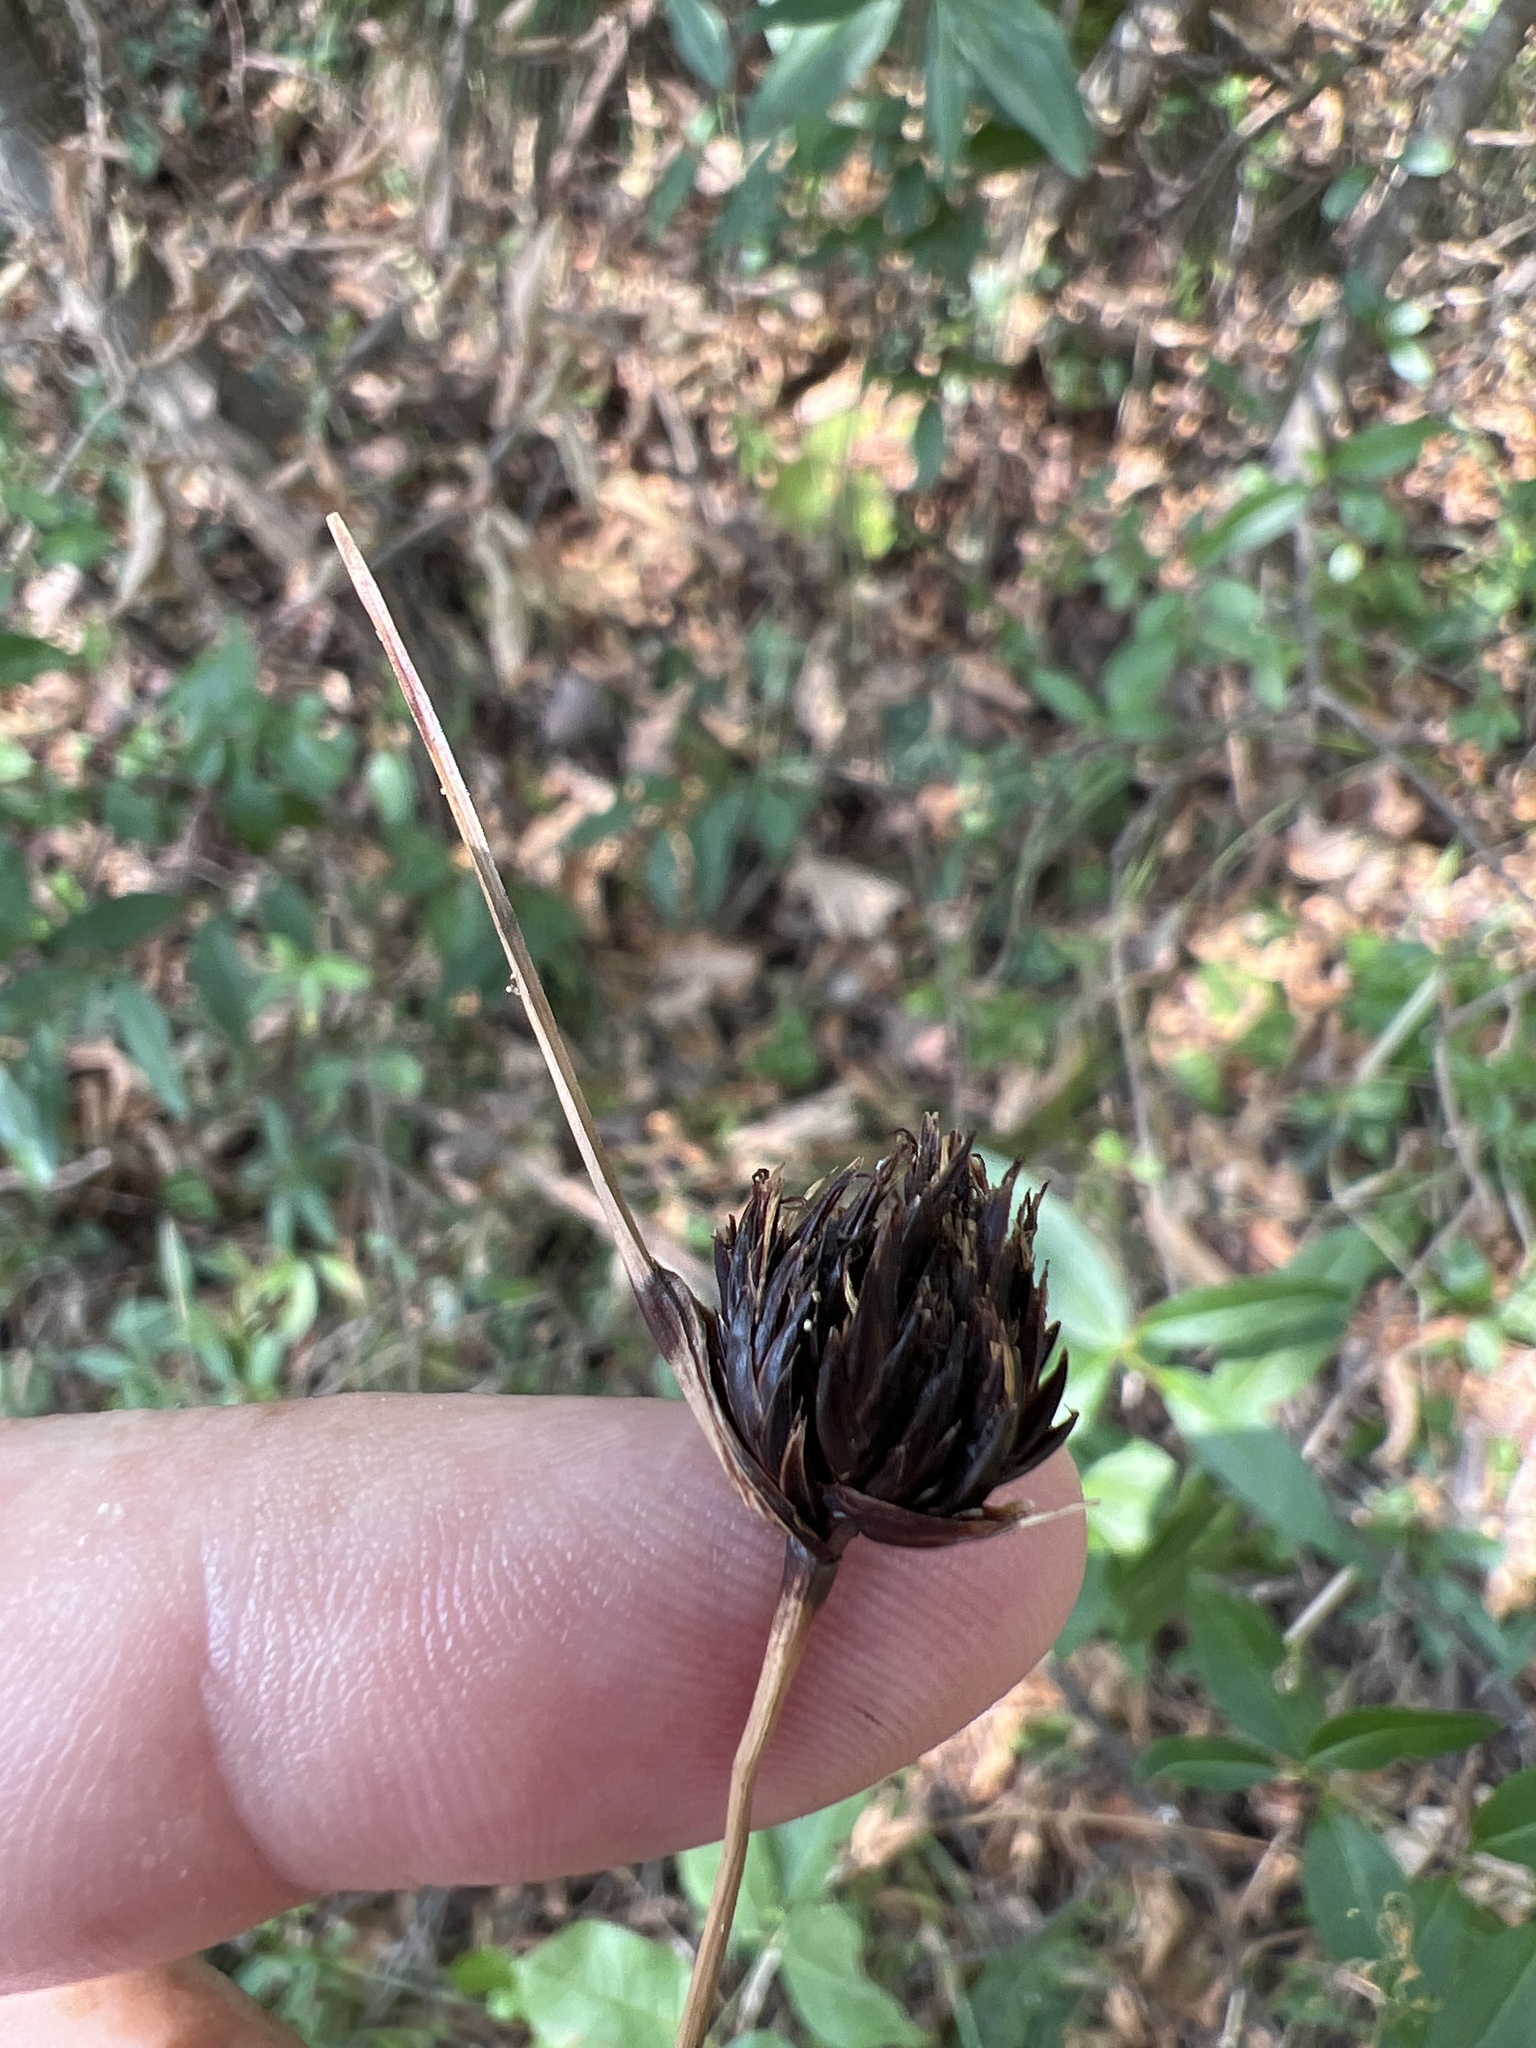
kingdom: Plantae
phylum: Tracheophyta
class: Liliopsida
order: Poales
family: Cyperaceae
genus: Schoenus
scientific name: Schoenus nigricans
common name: Black bog-rush
